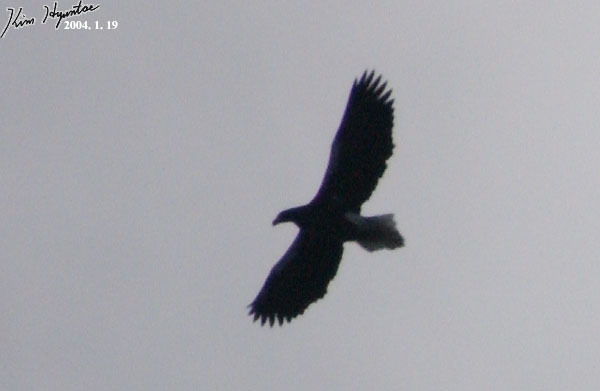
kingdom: Animalia
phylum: Chordata
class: Aves
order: Accipitriformes
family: Accipitridae
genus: Haliaeetus
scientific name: Haliaeetus pelagicus
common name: Steller's sea eagle
